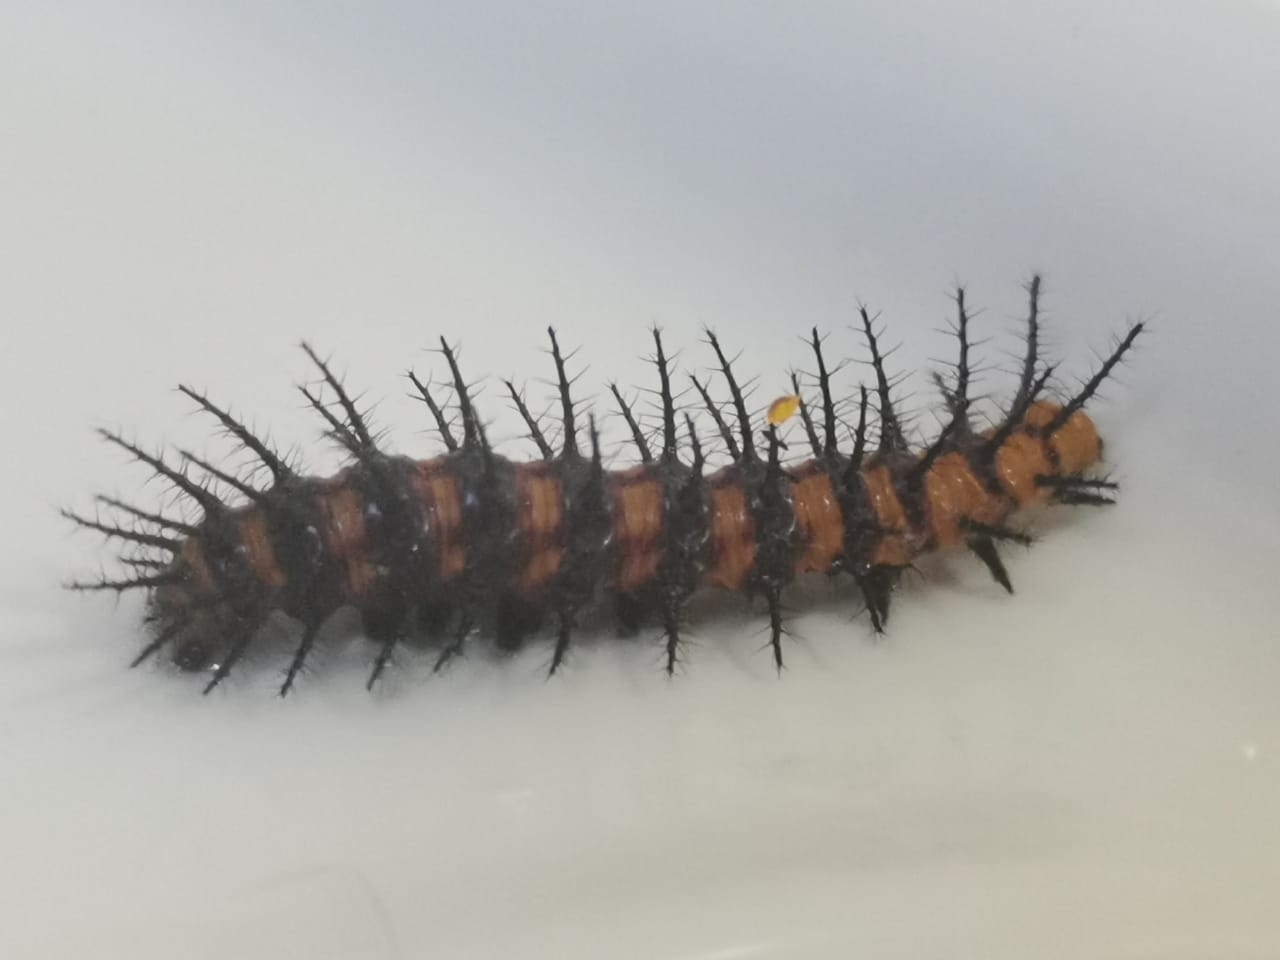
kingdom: Animalia
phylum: Arthropoda
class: Insecta
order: Lepidoptera
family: Nymphalidae
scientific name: Nymphalidae
